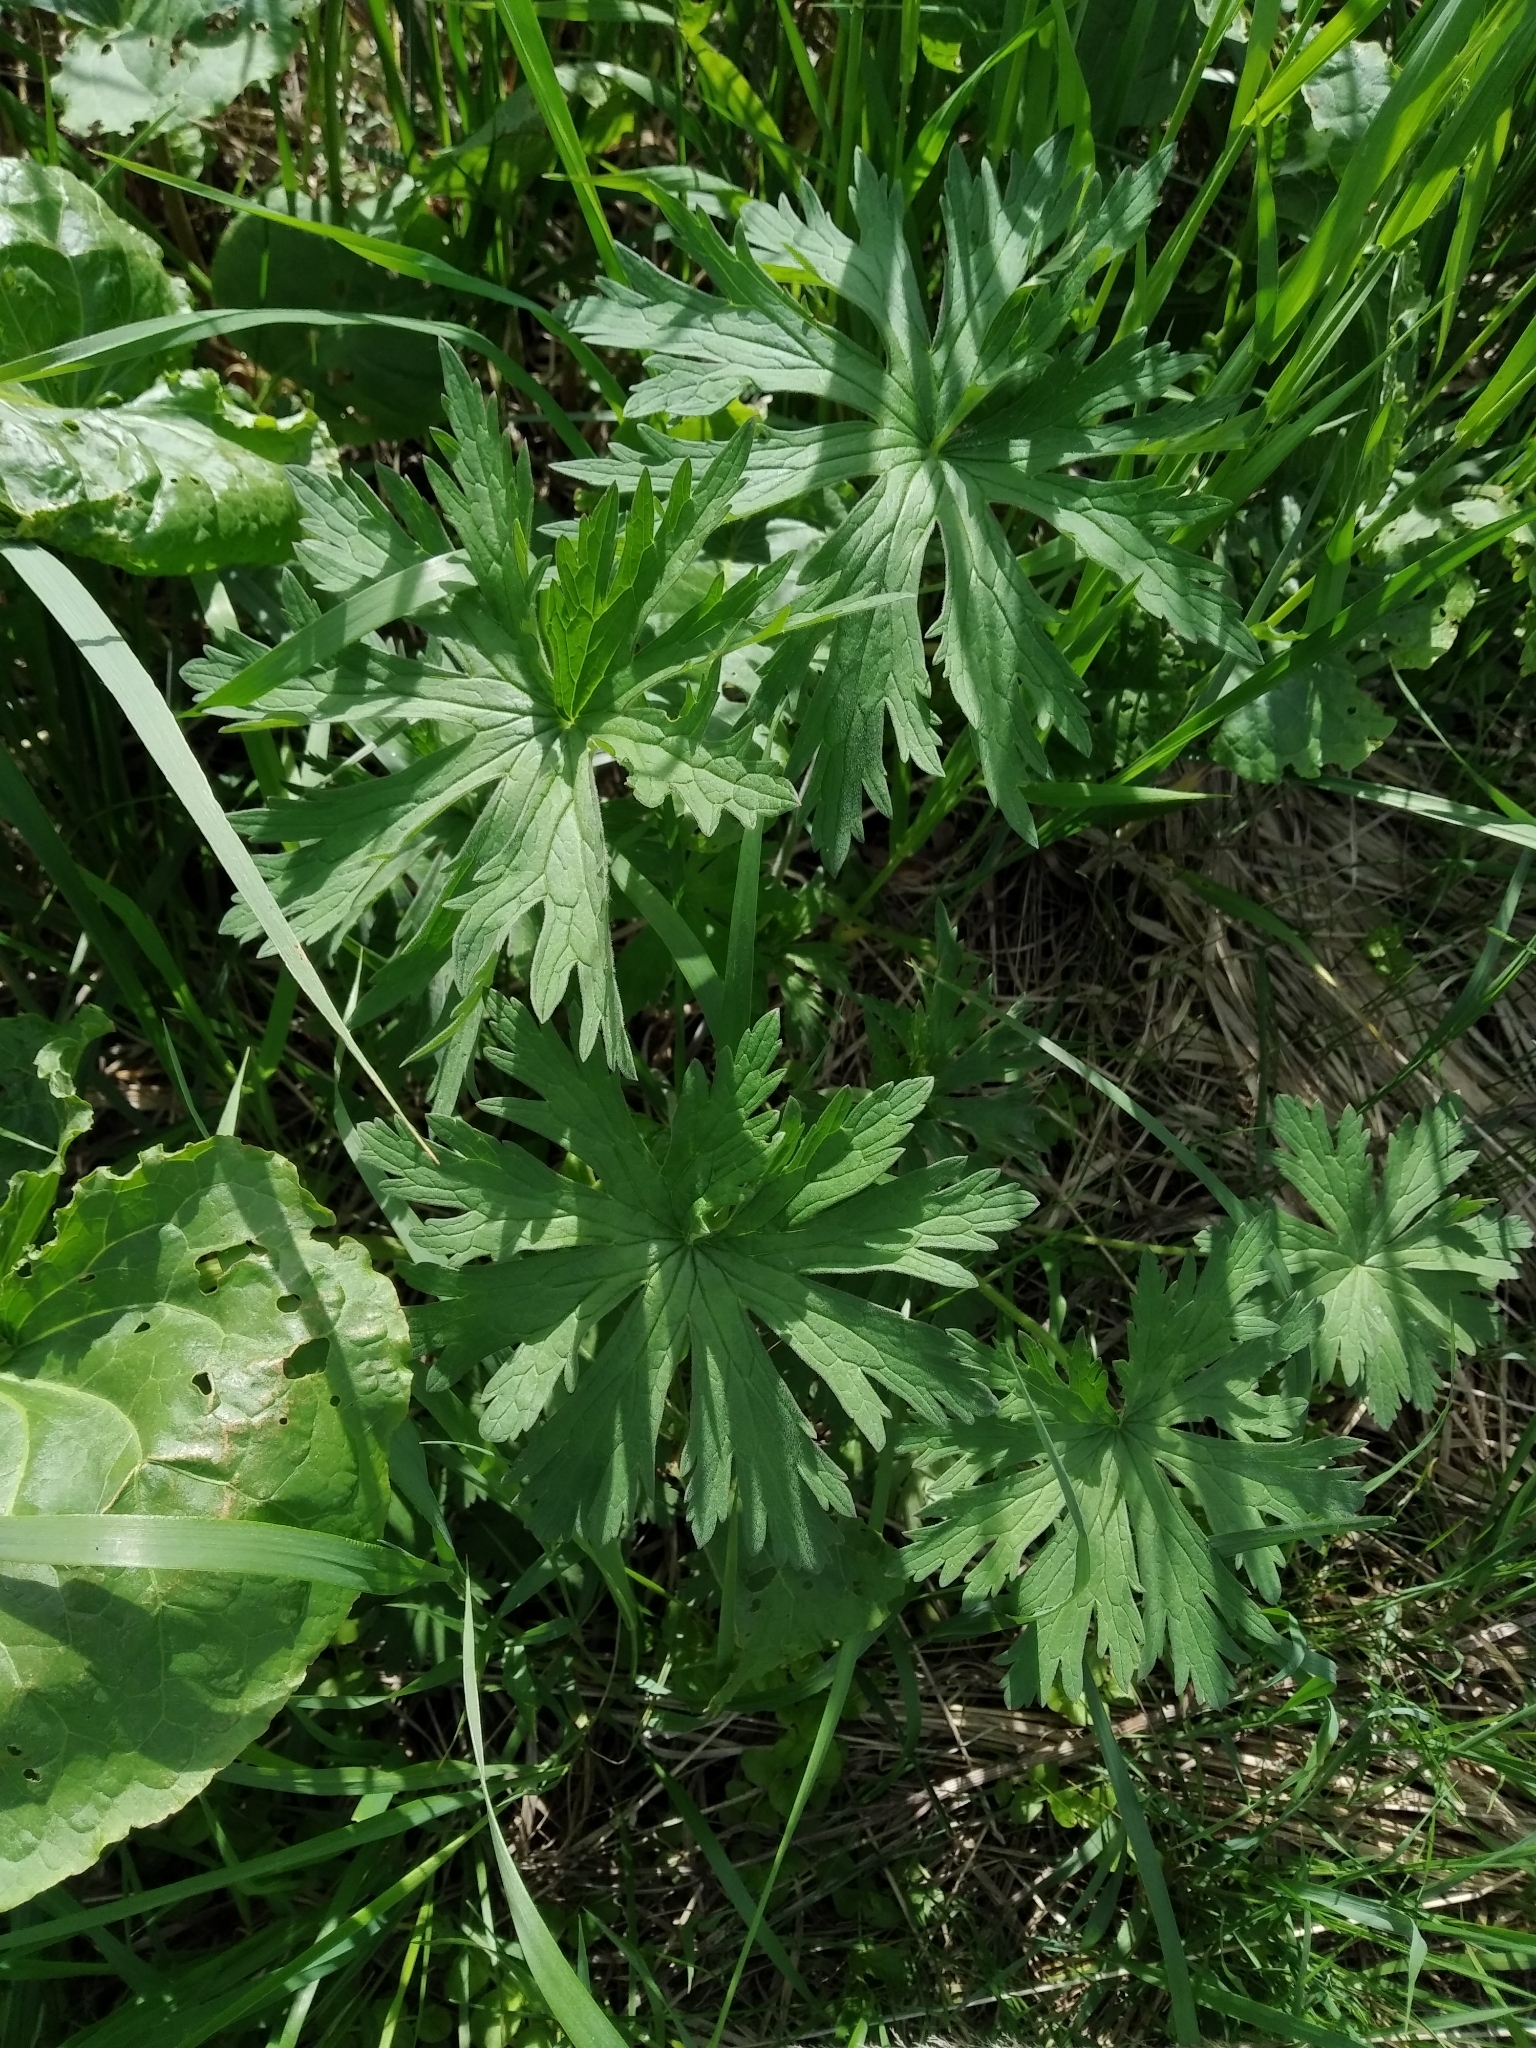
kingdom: Plantae
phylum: Tracheophyta
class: Magnoliopsida
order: Geraniales
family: Geraniaceae
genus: Geranium
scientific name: Geranium pratense
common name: Meadow crane's-bill
